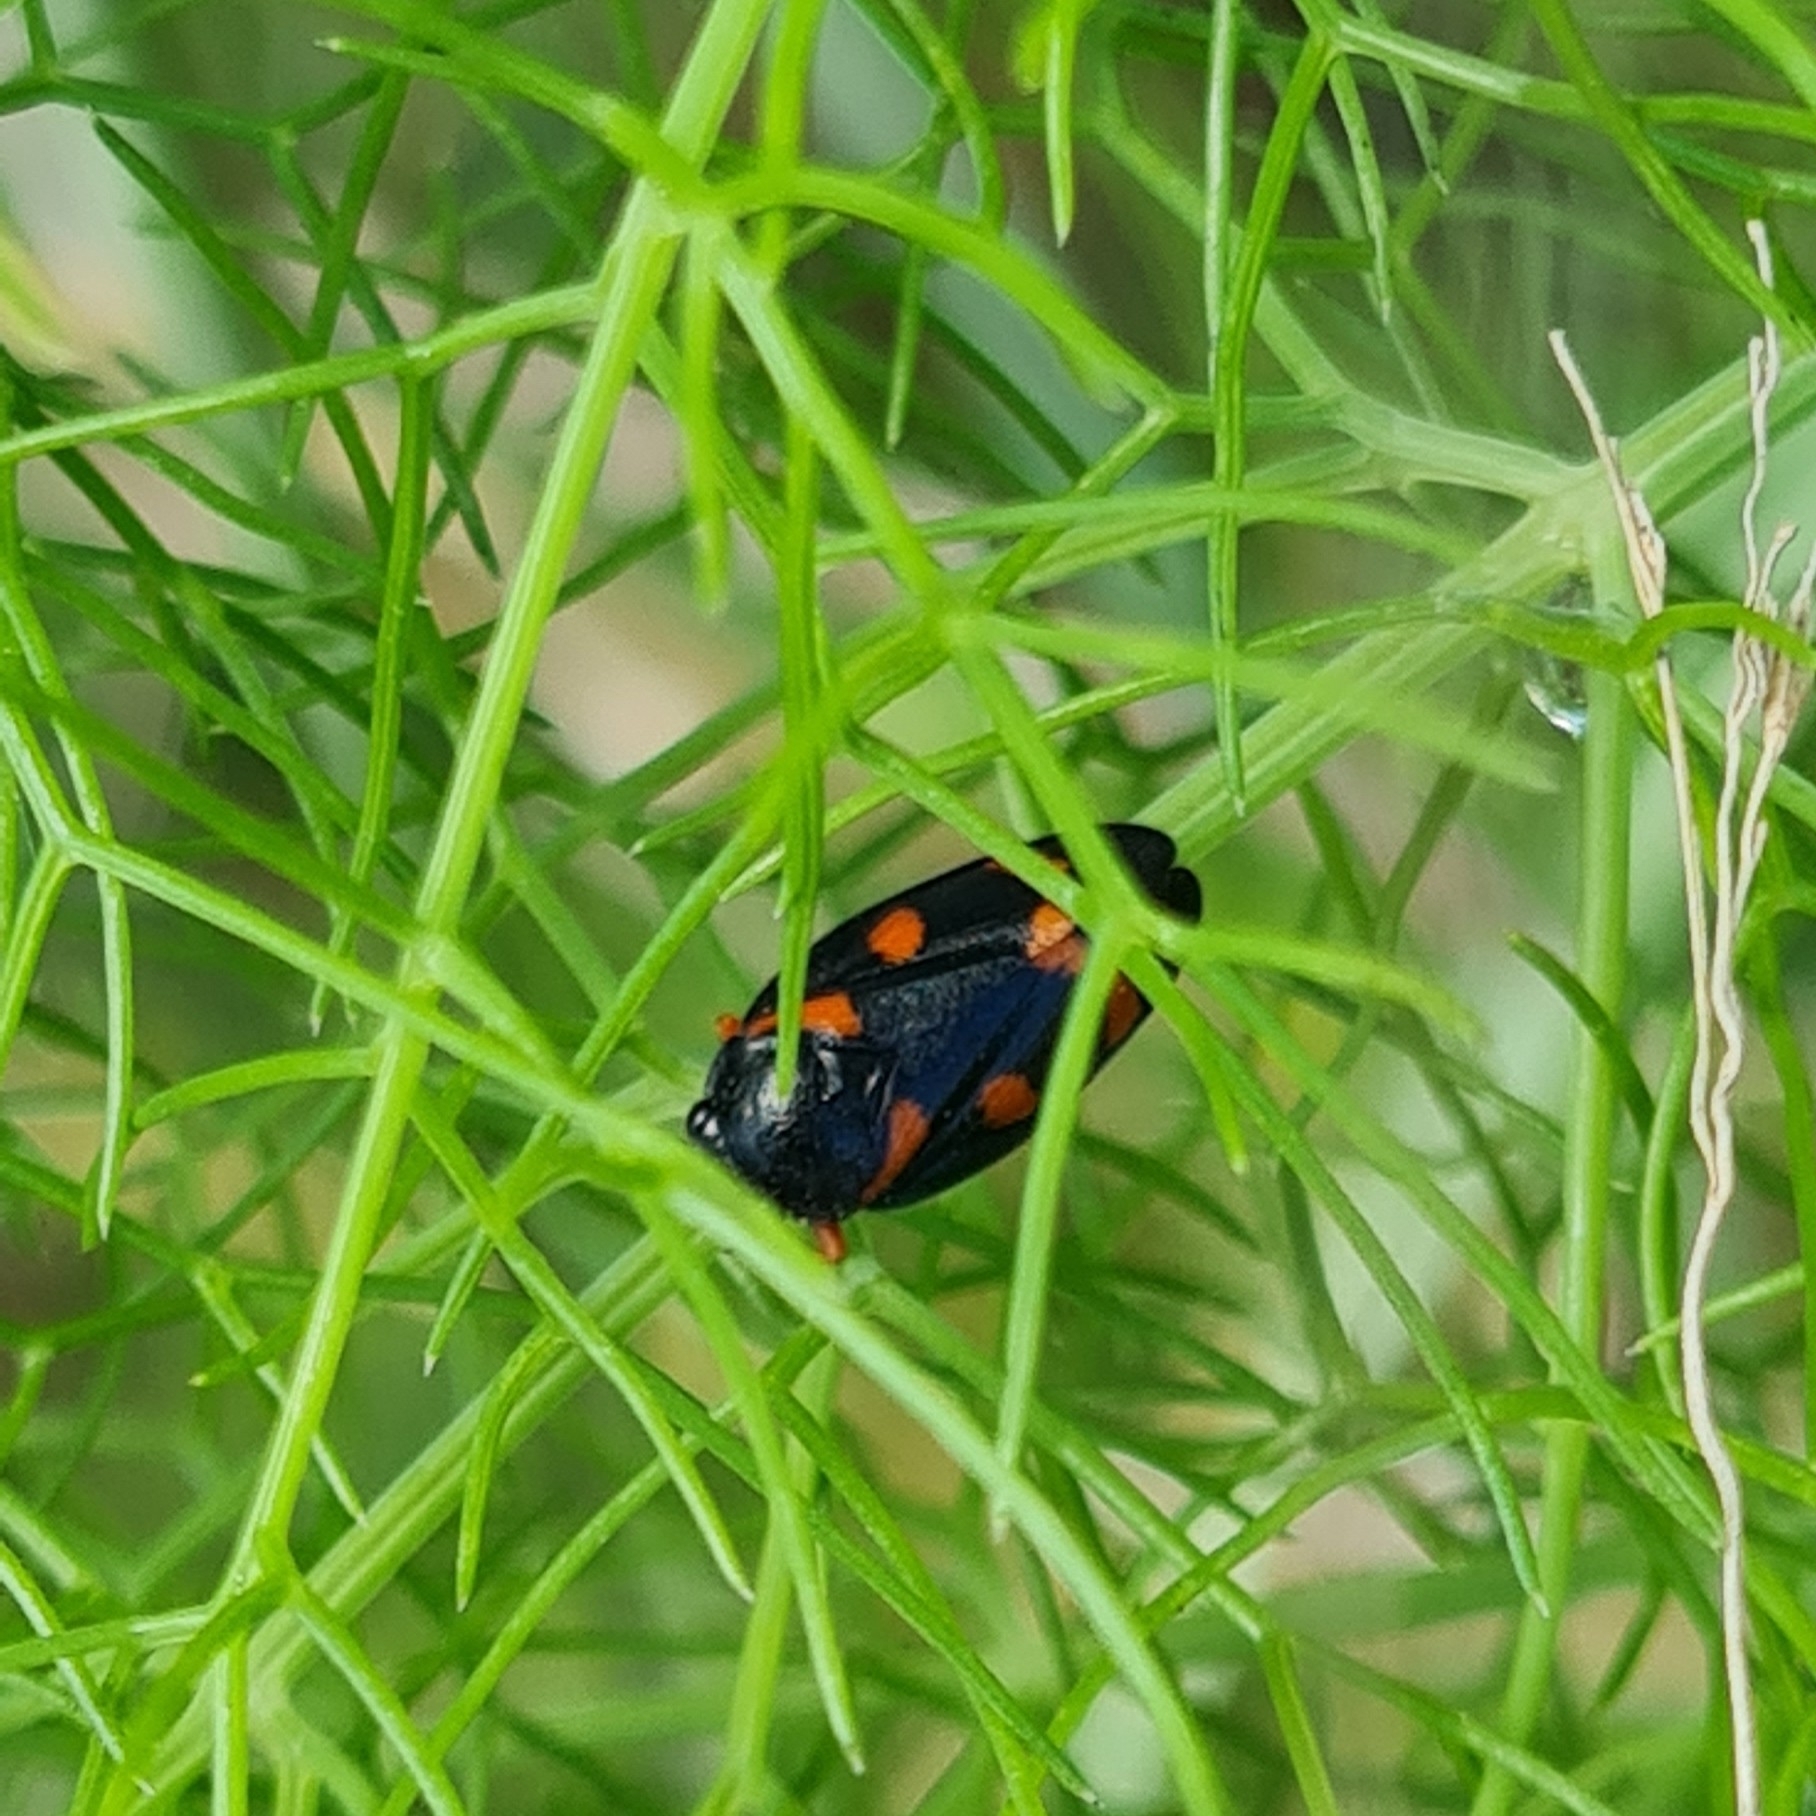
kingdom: Animalia
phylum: Arthropoda
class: Insecta
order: Hemiptera
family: Cercopidae
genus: Cercopis
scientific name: Cercopis intermedia
